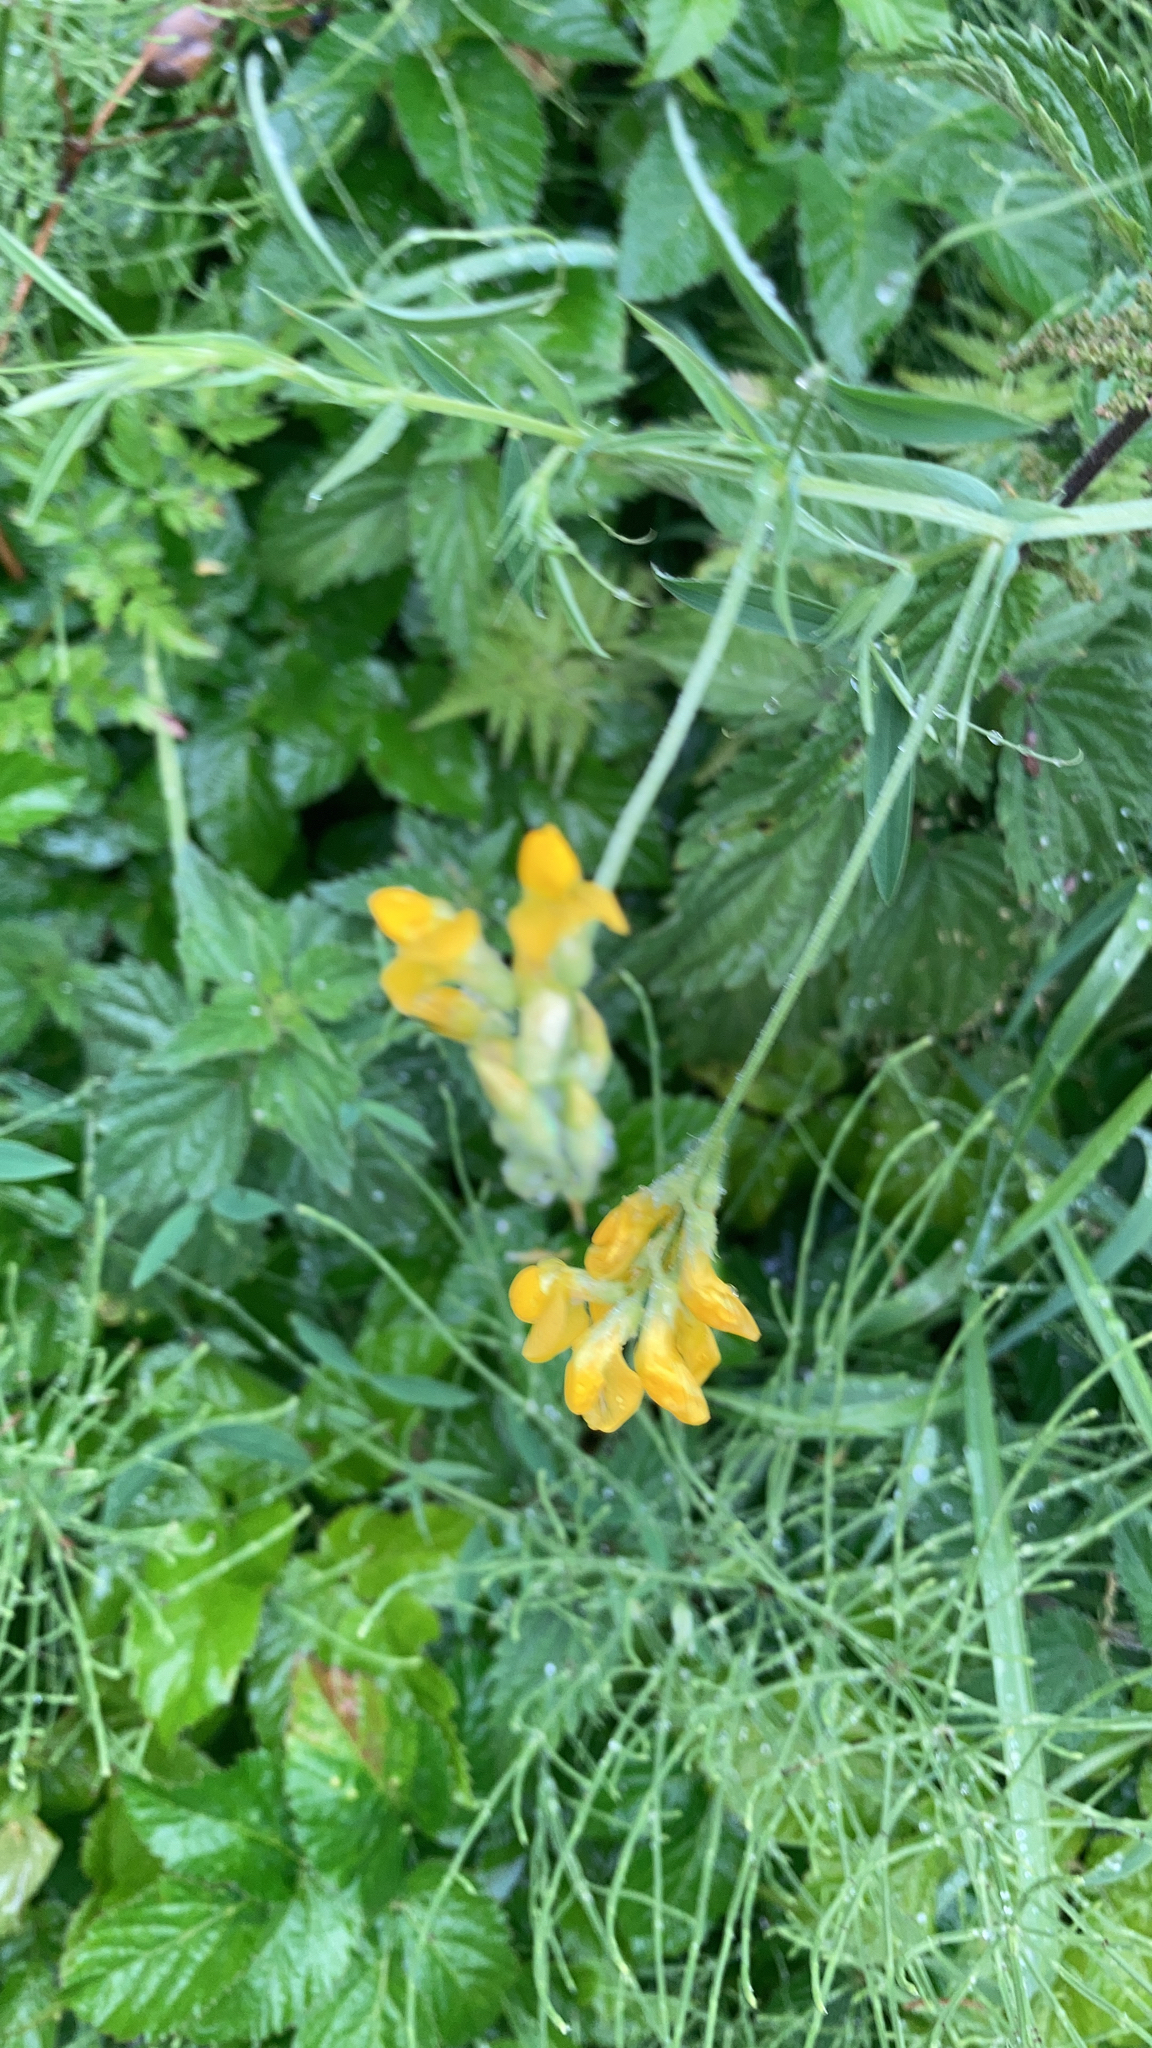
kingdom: Plantae
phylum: Tracheophyta
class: Magnoliopsida
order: Fabales
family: Fabaceae
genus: Lathyrus
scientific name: Lathyrus pratensis
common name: Meadow vetchling
